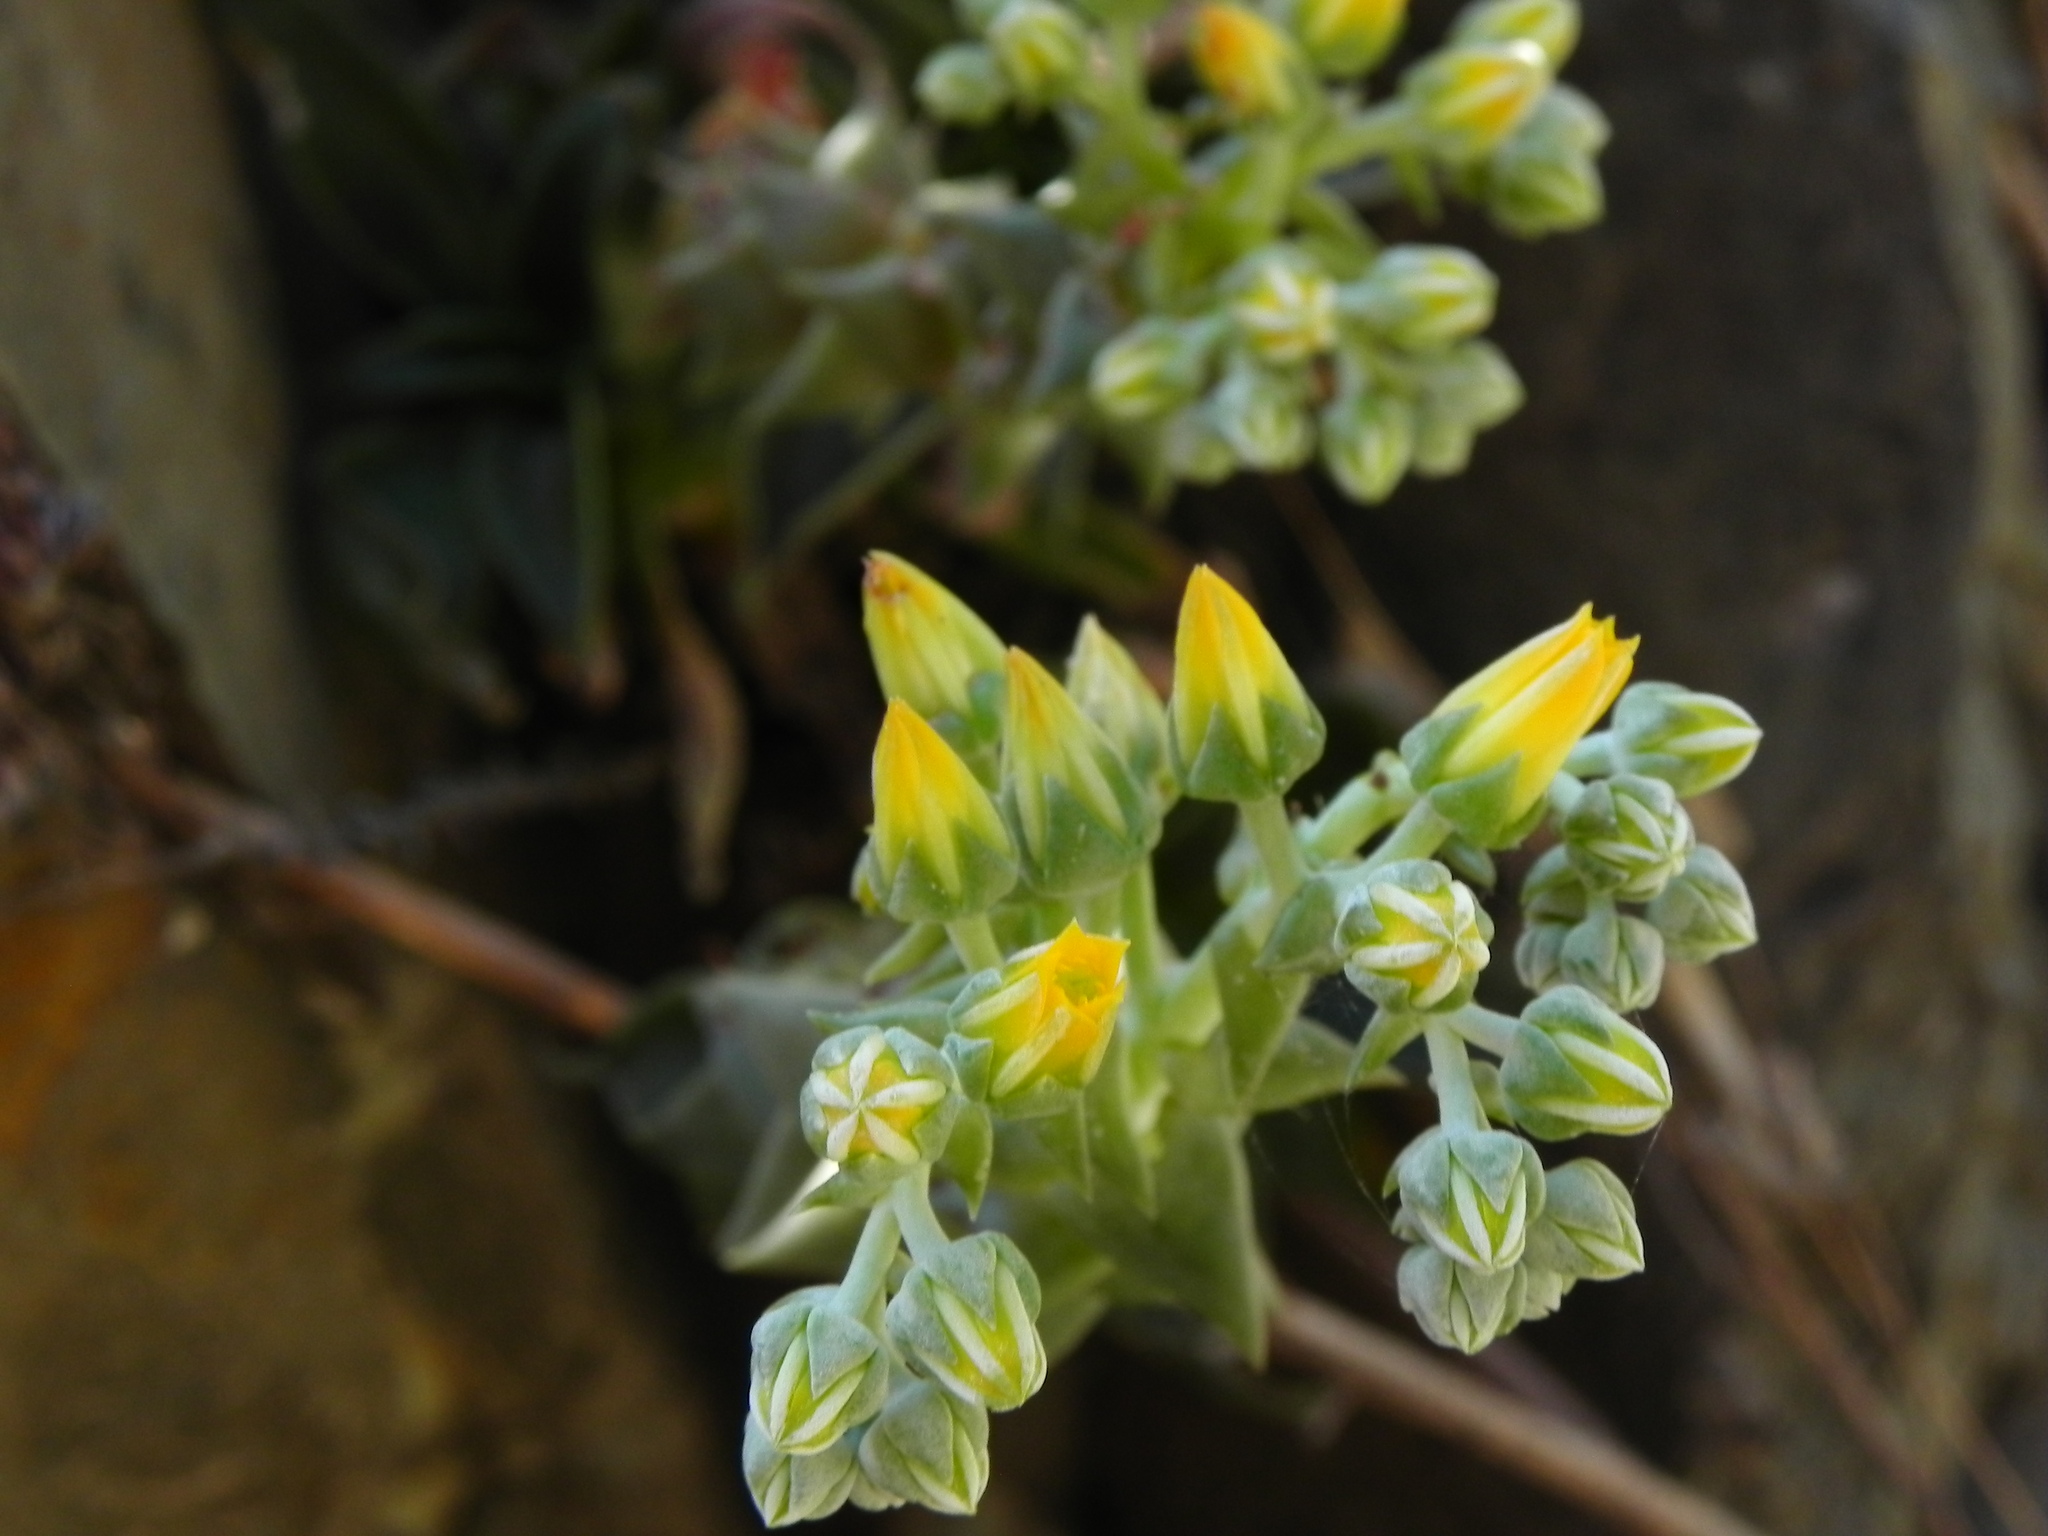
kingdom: Plantae
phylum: Tracheophyta
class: Magnoliopsida
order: Saxifragales
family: Crassulaceae
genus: Dudleya
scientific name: Dudleya cymosa
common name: Canyon dudleya
